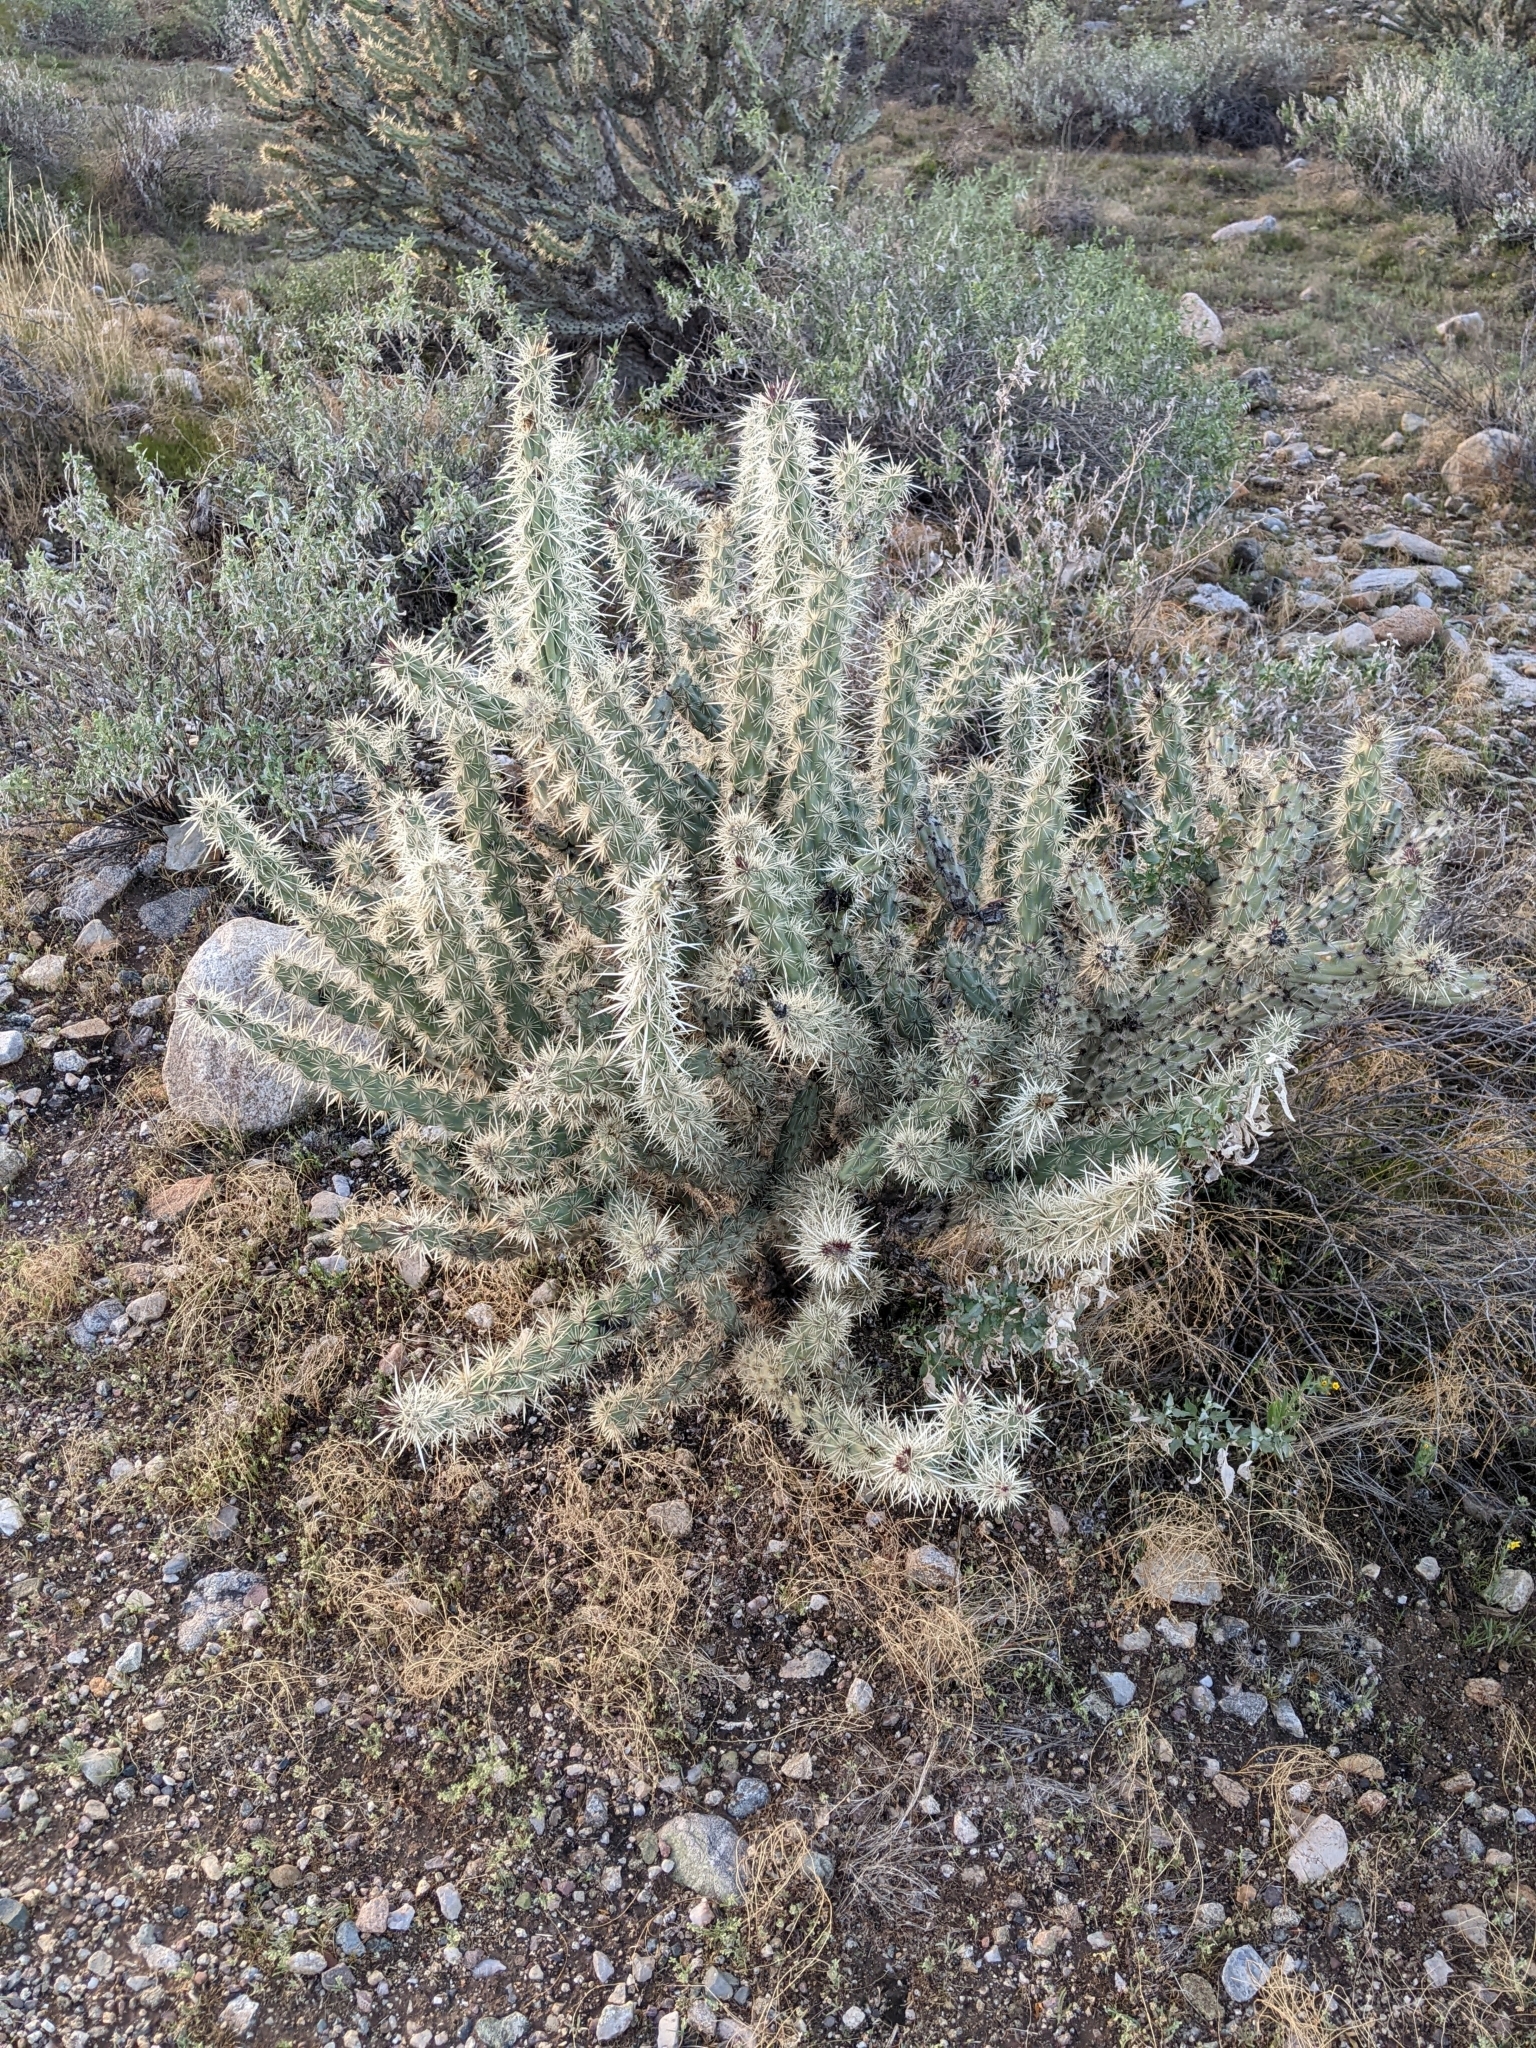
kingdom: Plantae
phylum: Tracheophyta
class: Magnoliopsida
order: Caryophyllales
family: Cactaceae
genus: Cylindropuntia
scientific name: Cylindropuntia acanthocarpa
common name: Buckhorn cholla
